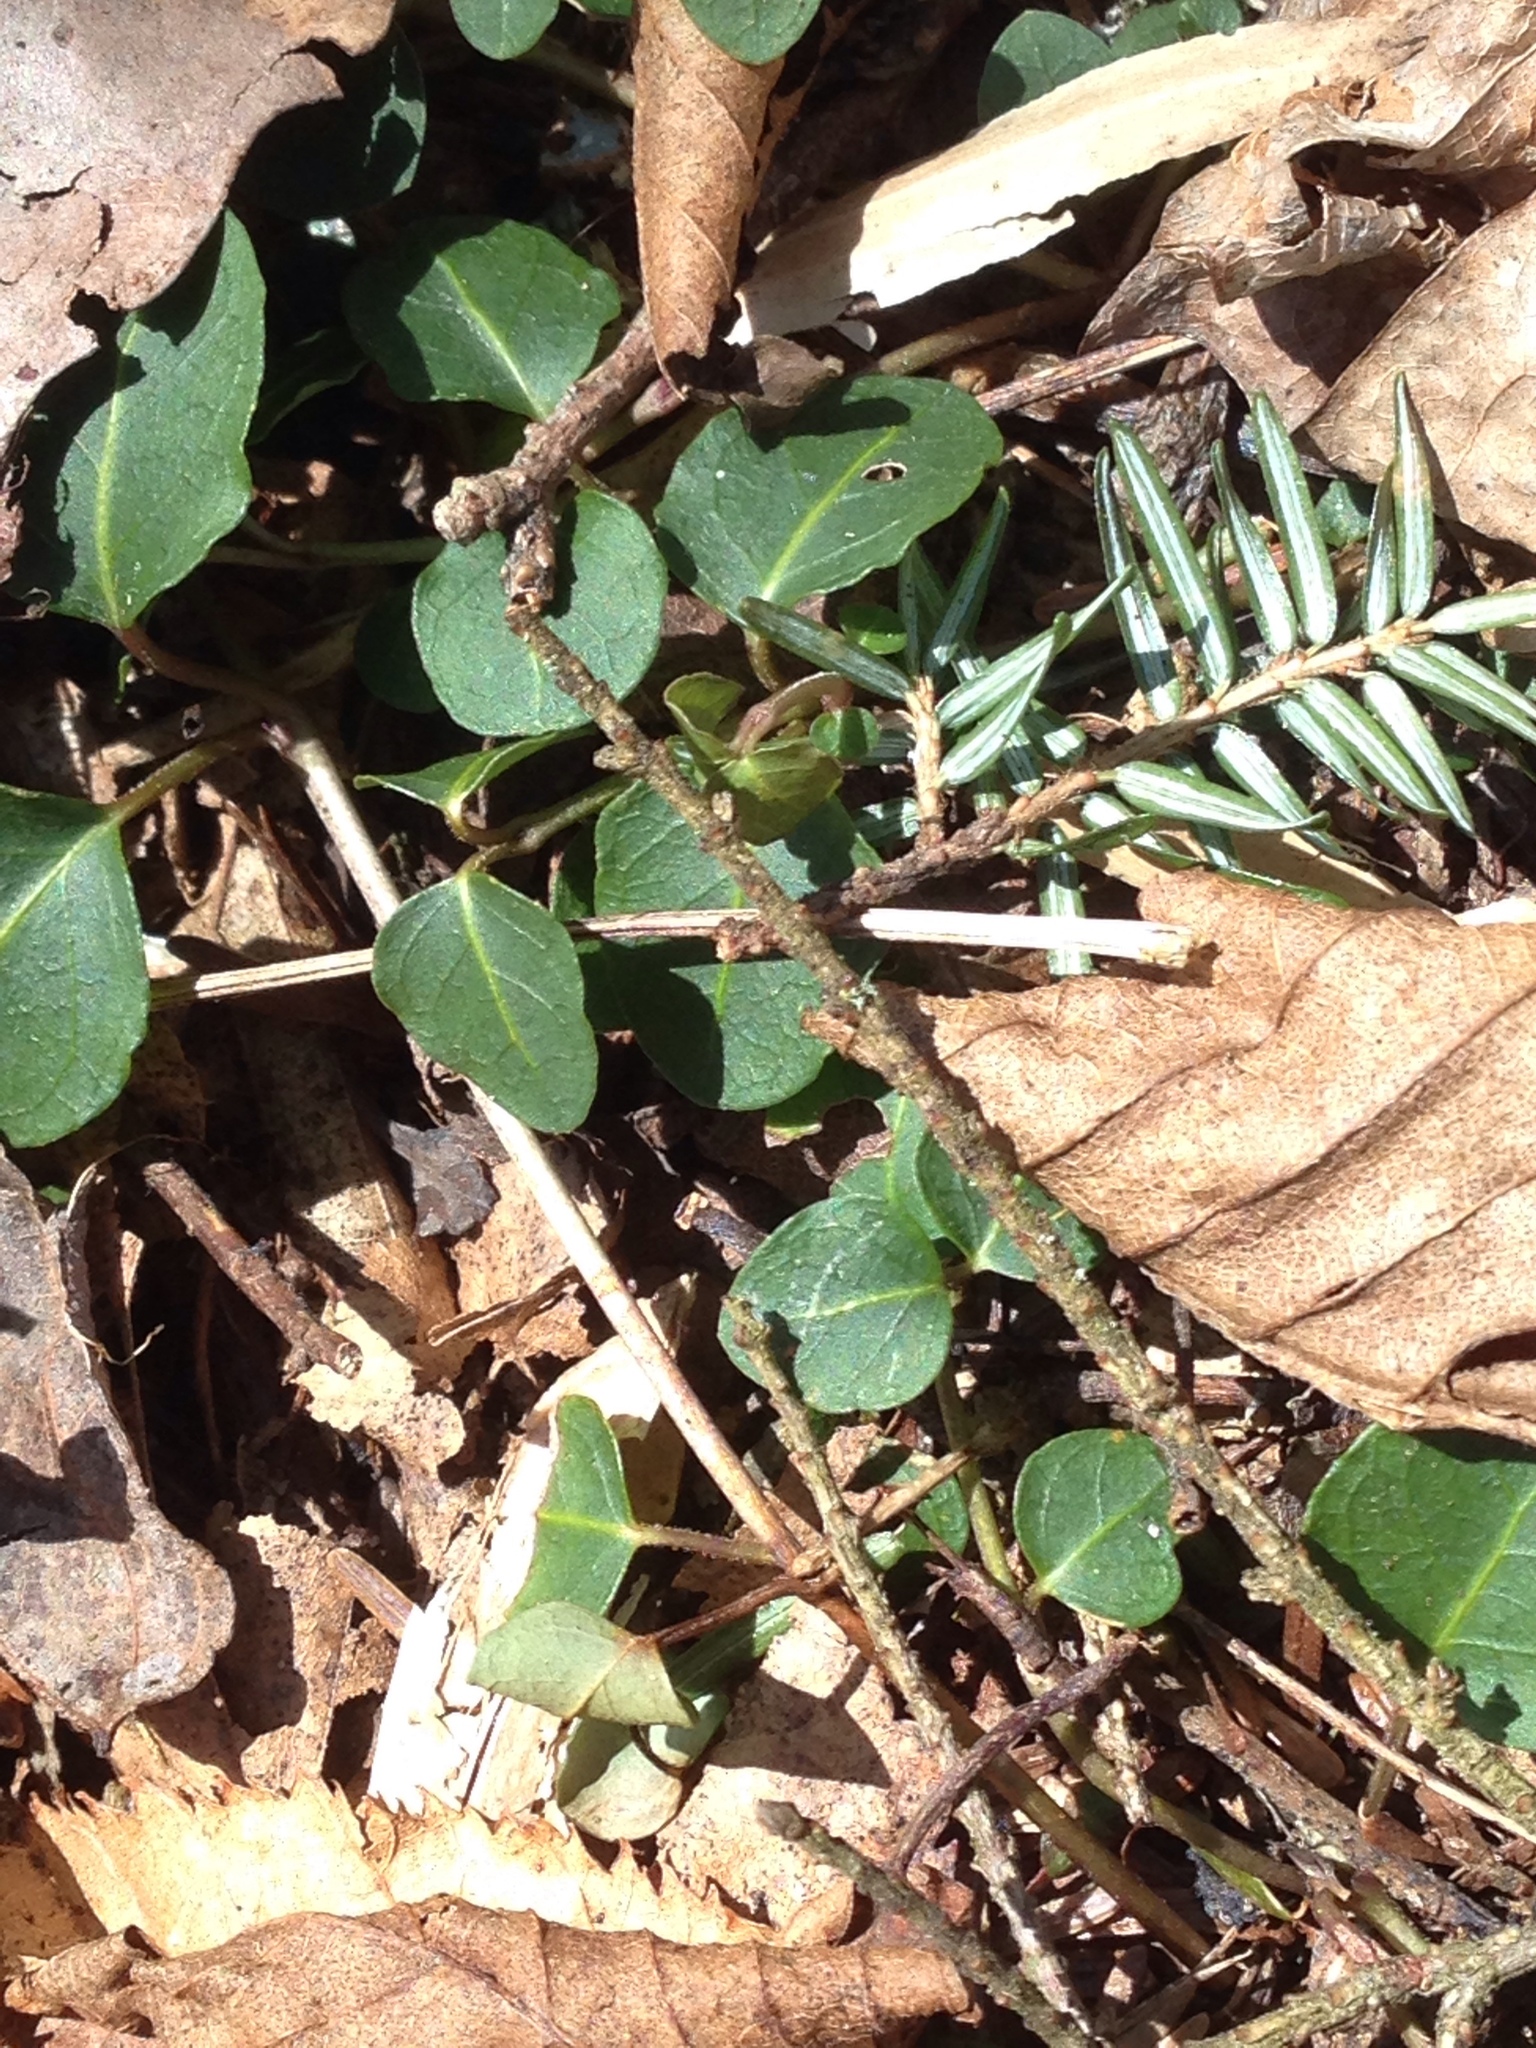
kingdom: Plantae
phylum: Tracheophyta
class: Magnoliopsida
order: Gentianales
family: Rubiaceae
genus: Mitchella
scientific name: Mitchella repens
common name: Partridge-berry
